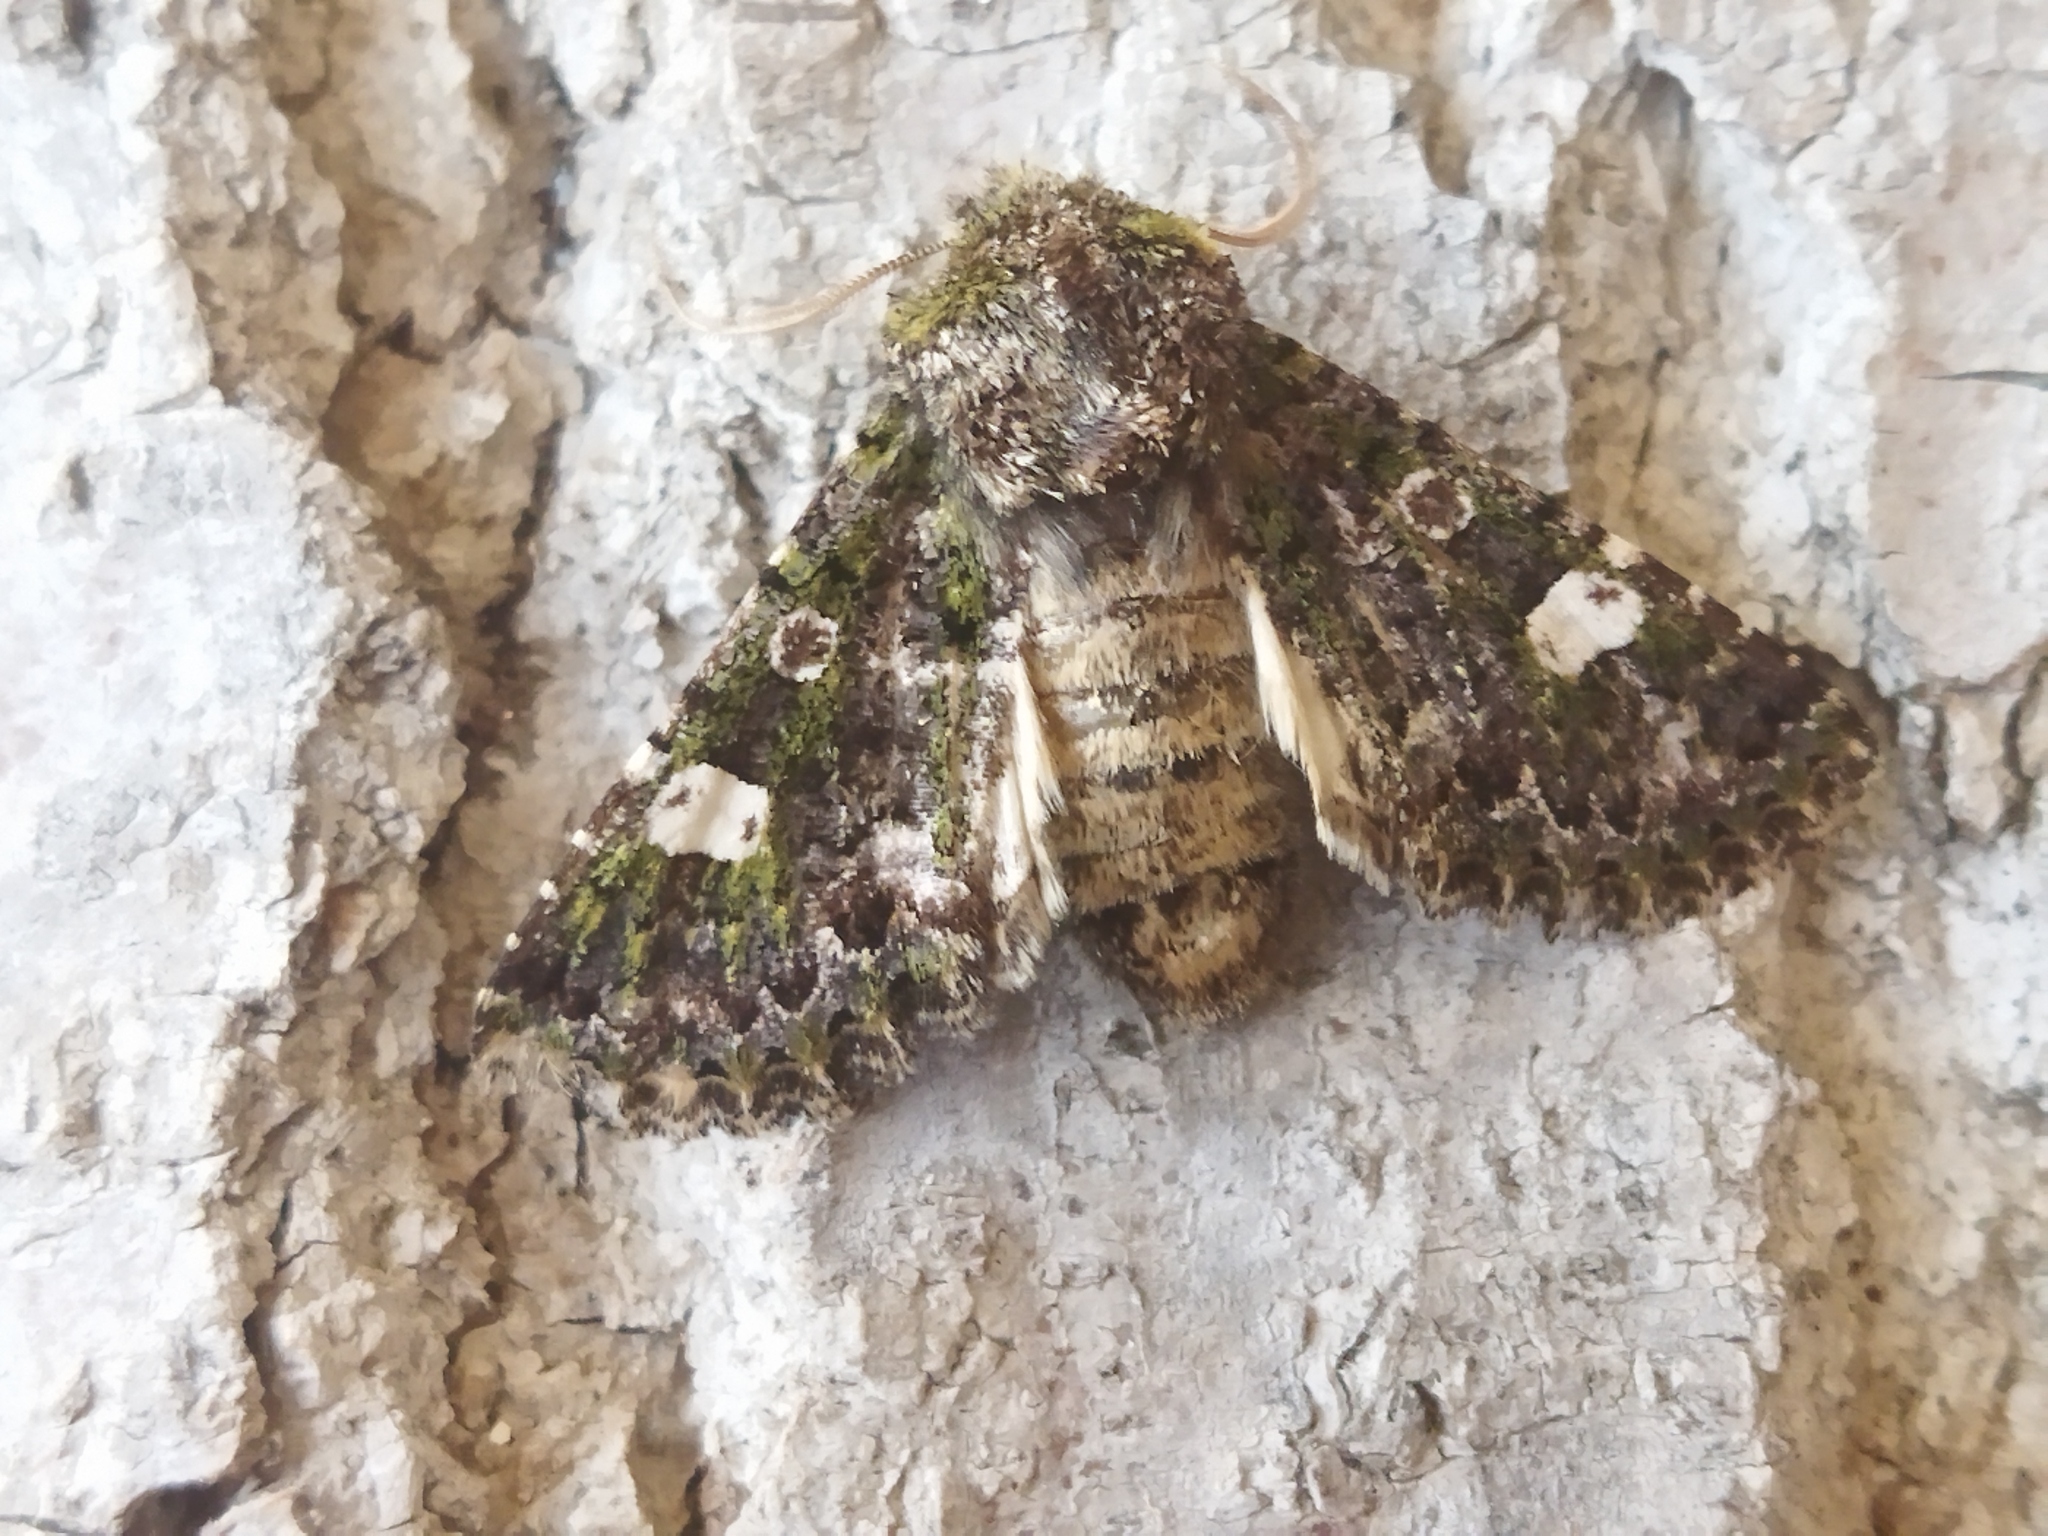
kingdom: Animalia
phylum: Arthropoda
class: Insecta
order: Lepidoptera
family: Noctuidae
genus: Valeria
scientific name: Valeria oleagina
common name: Green-brindled dot
